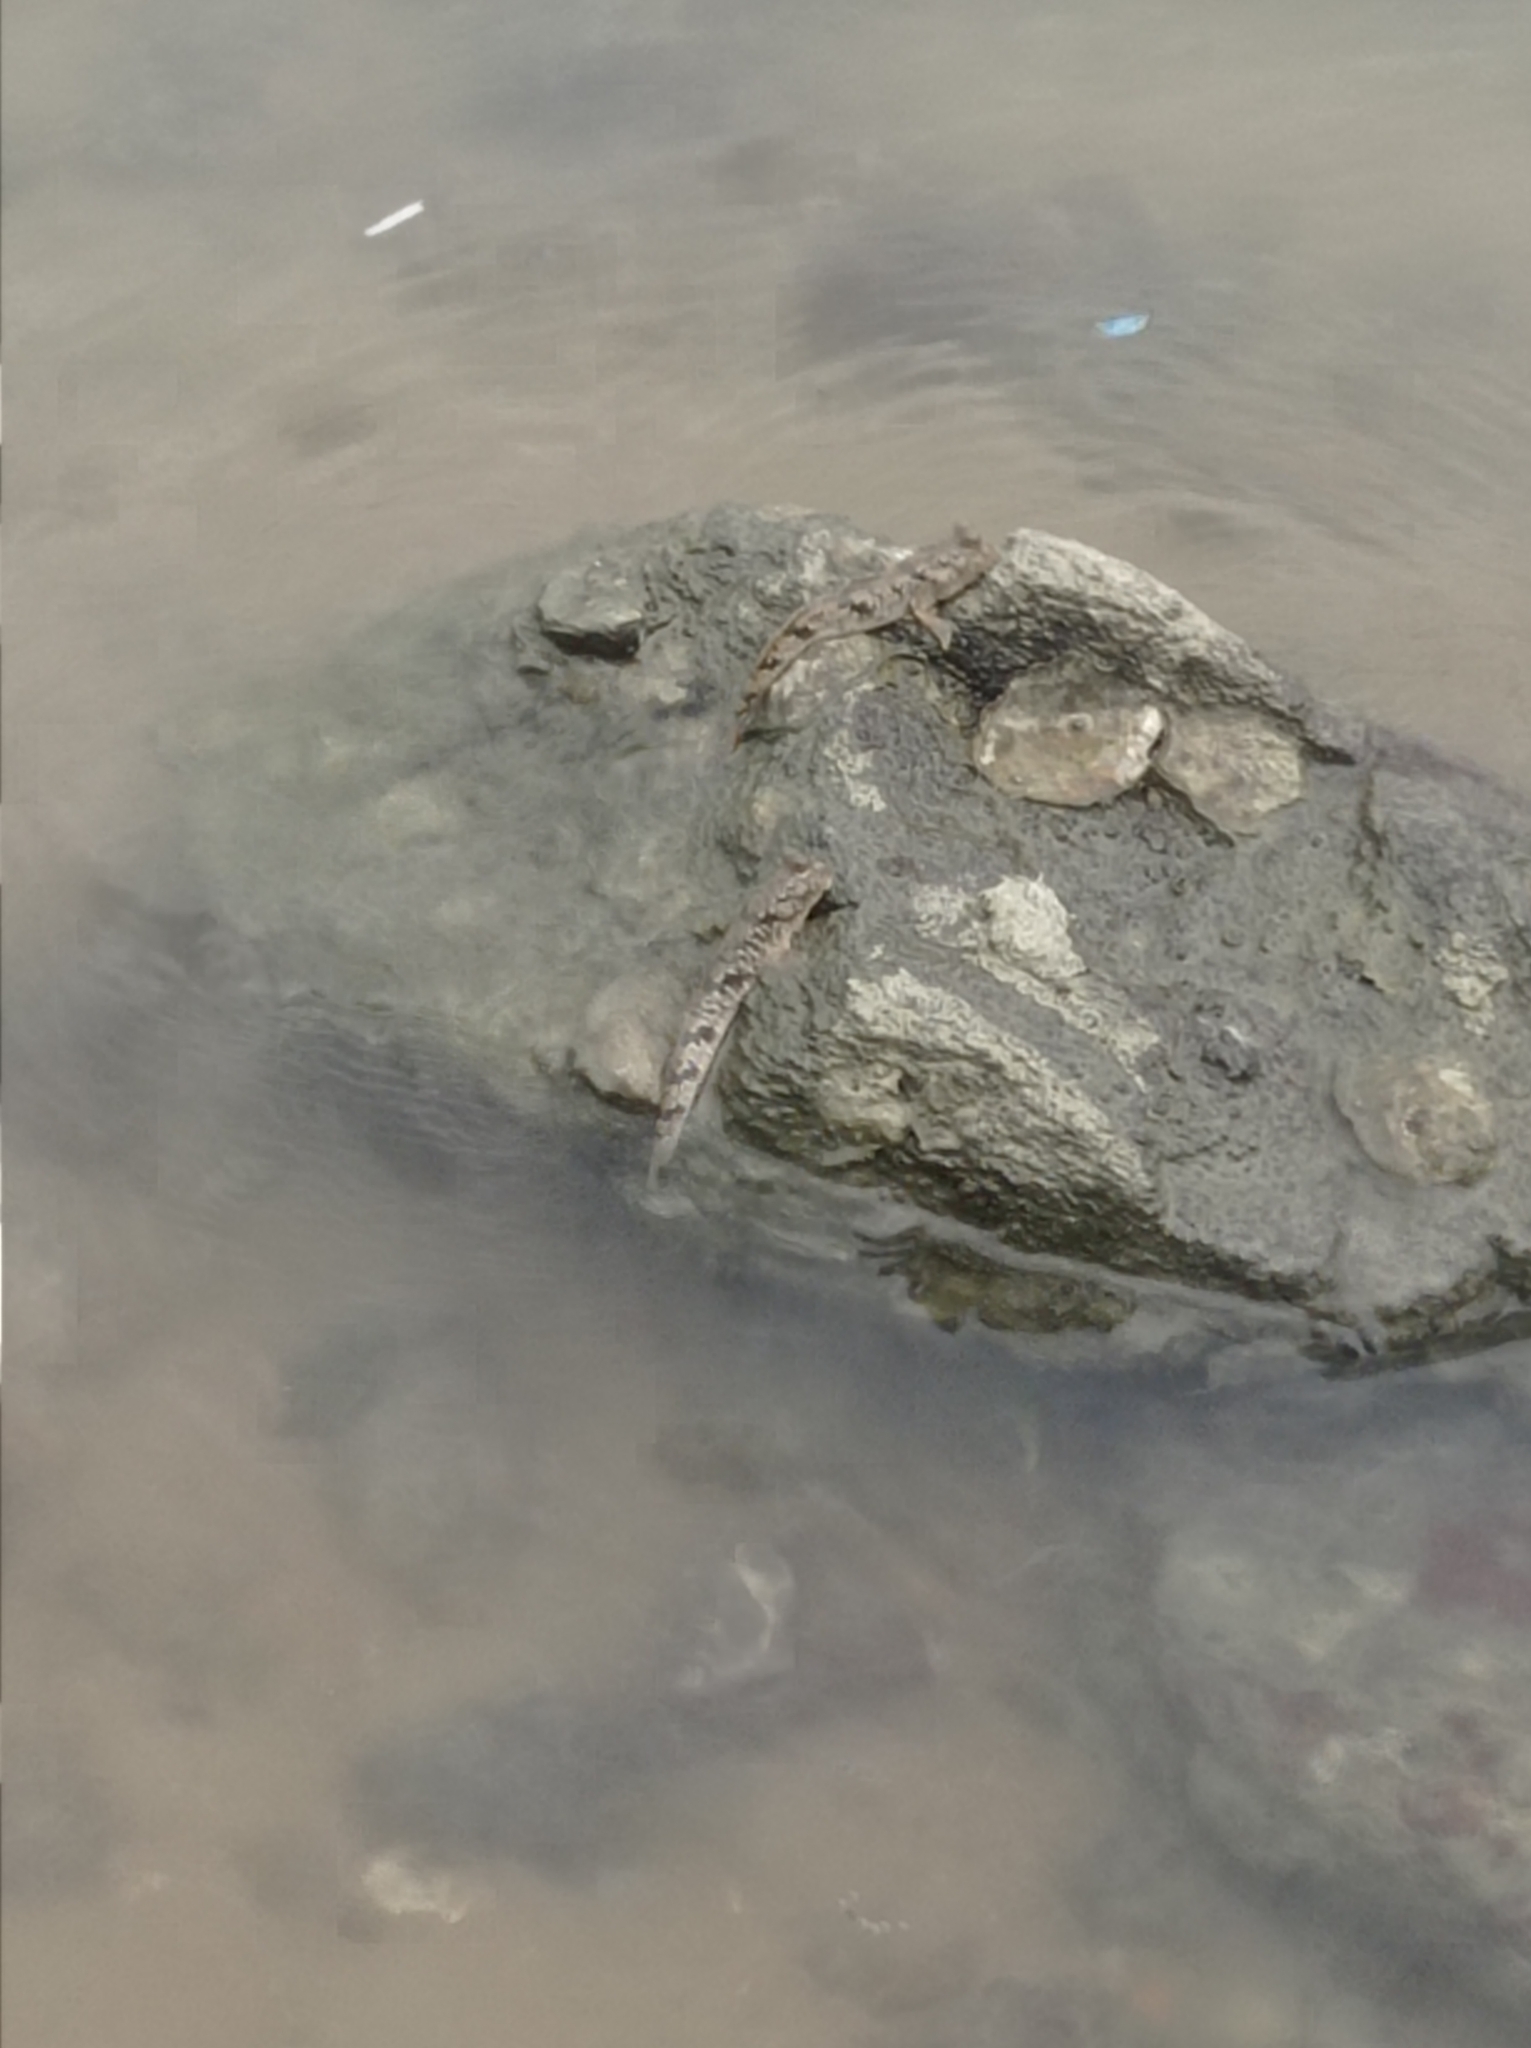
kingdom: Animalia
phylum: Chordata
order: Perciformes
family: Gobiidae
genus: Periophthalmus
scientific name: Periophthalmus modestus
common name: Black goby
